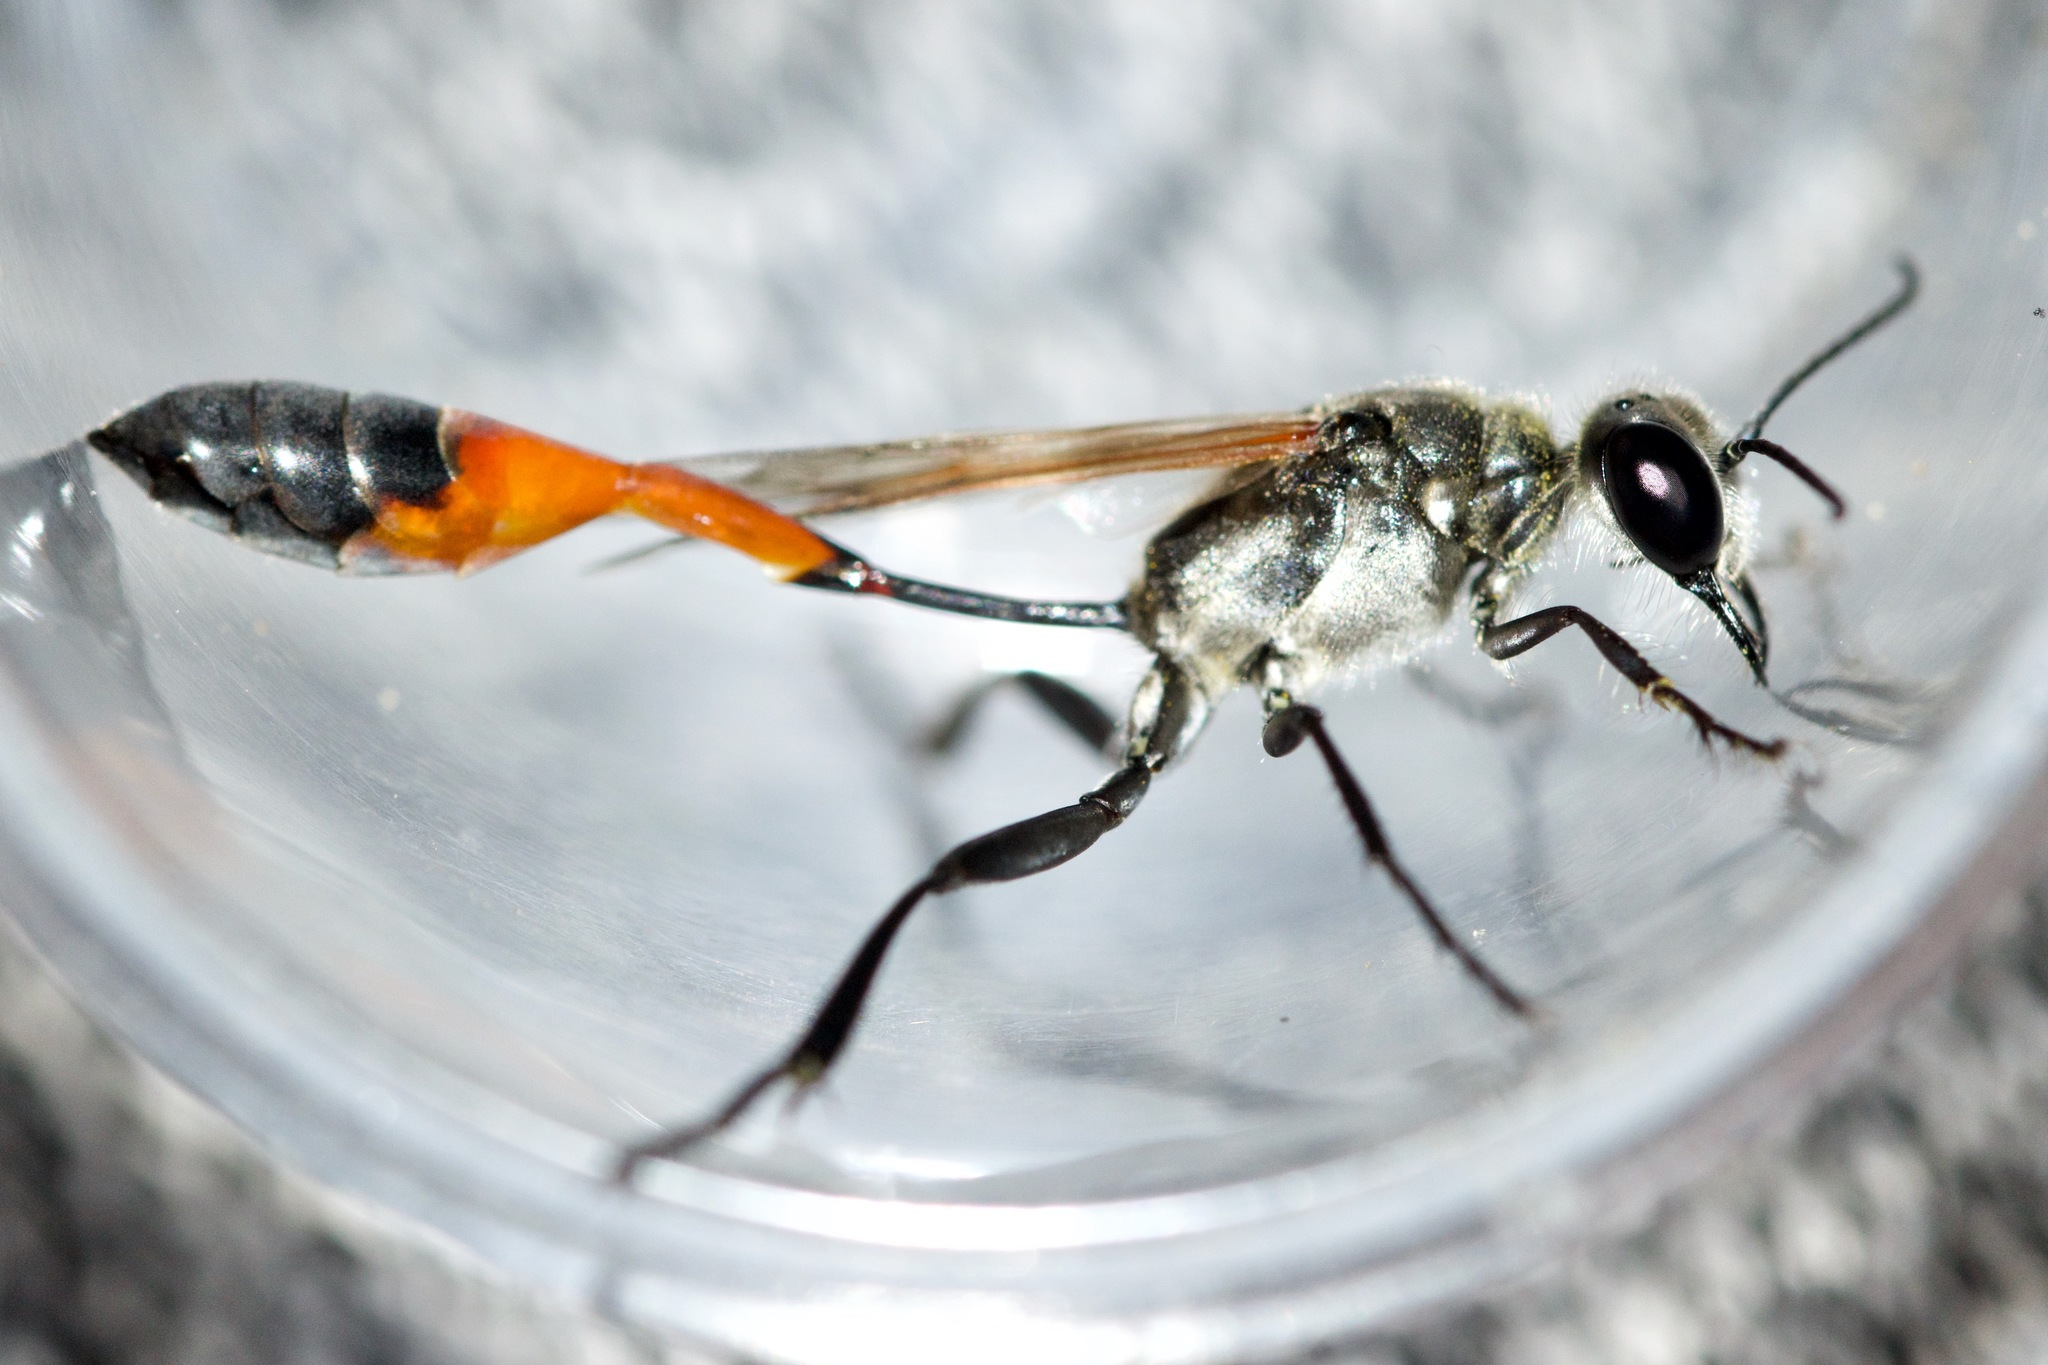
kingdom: Animalia
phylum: Arthropoda
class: Insecta
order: Hymenoptera
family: Sphecidae
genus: Ammophila
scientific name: Ammophila harti
